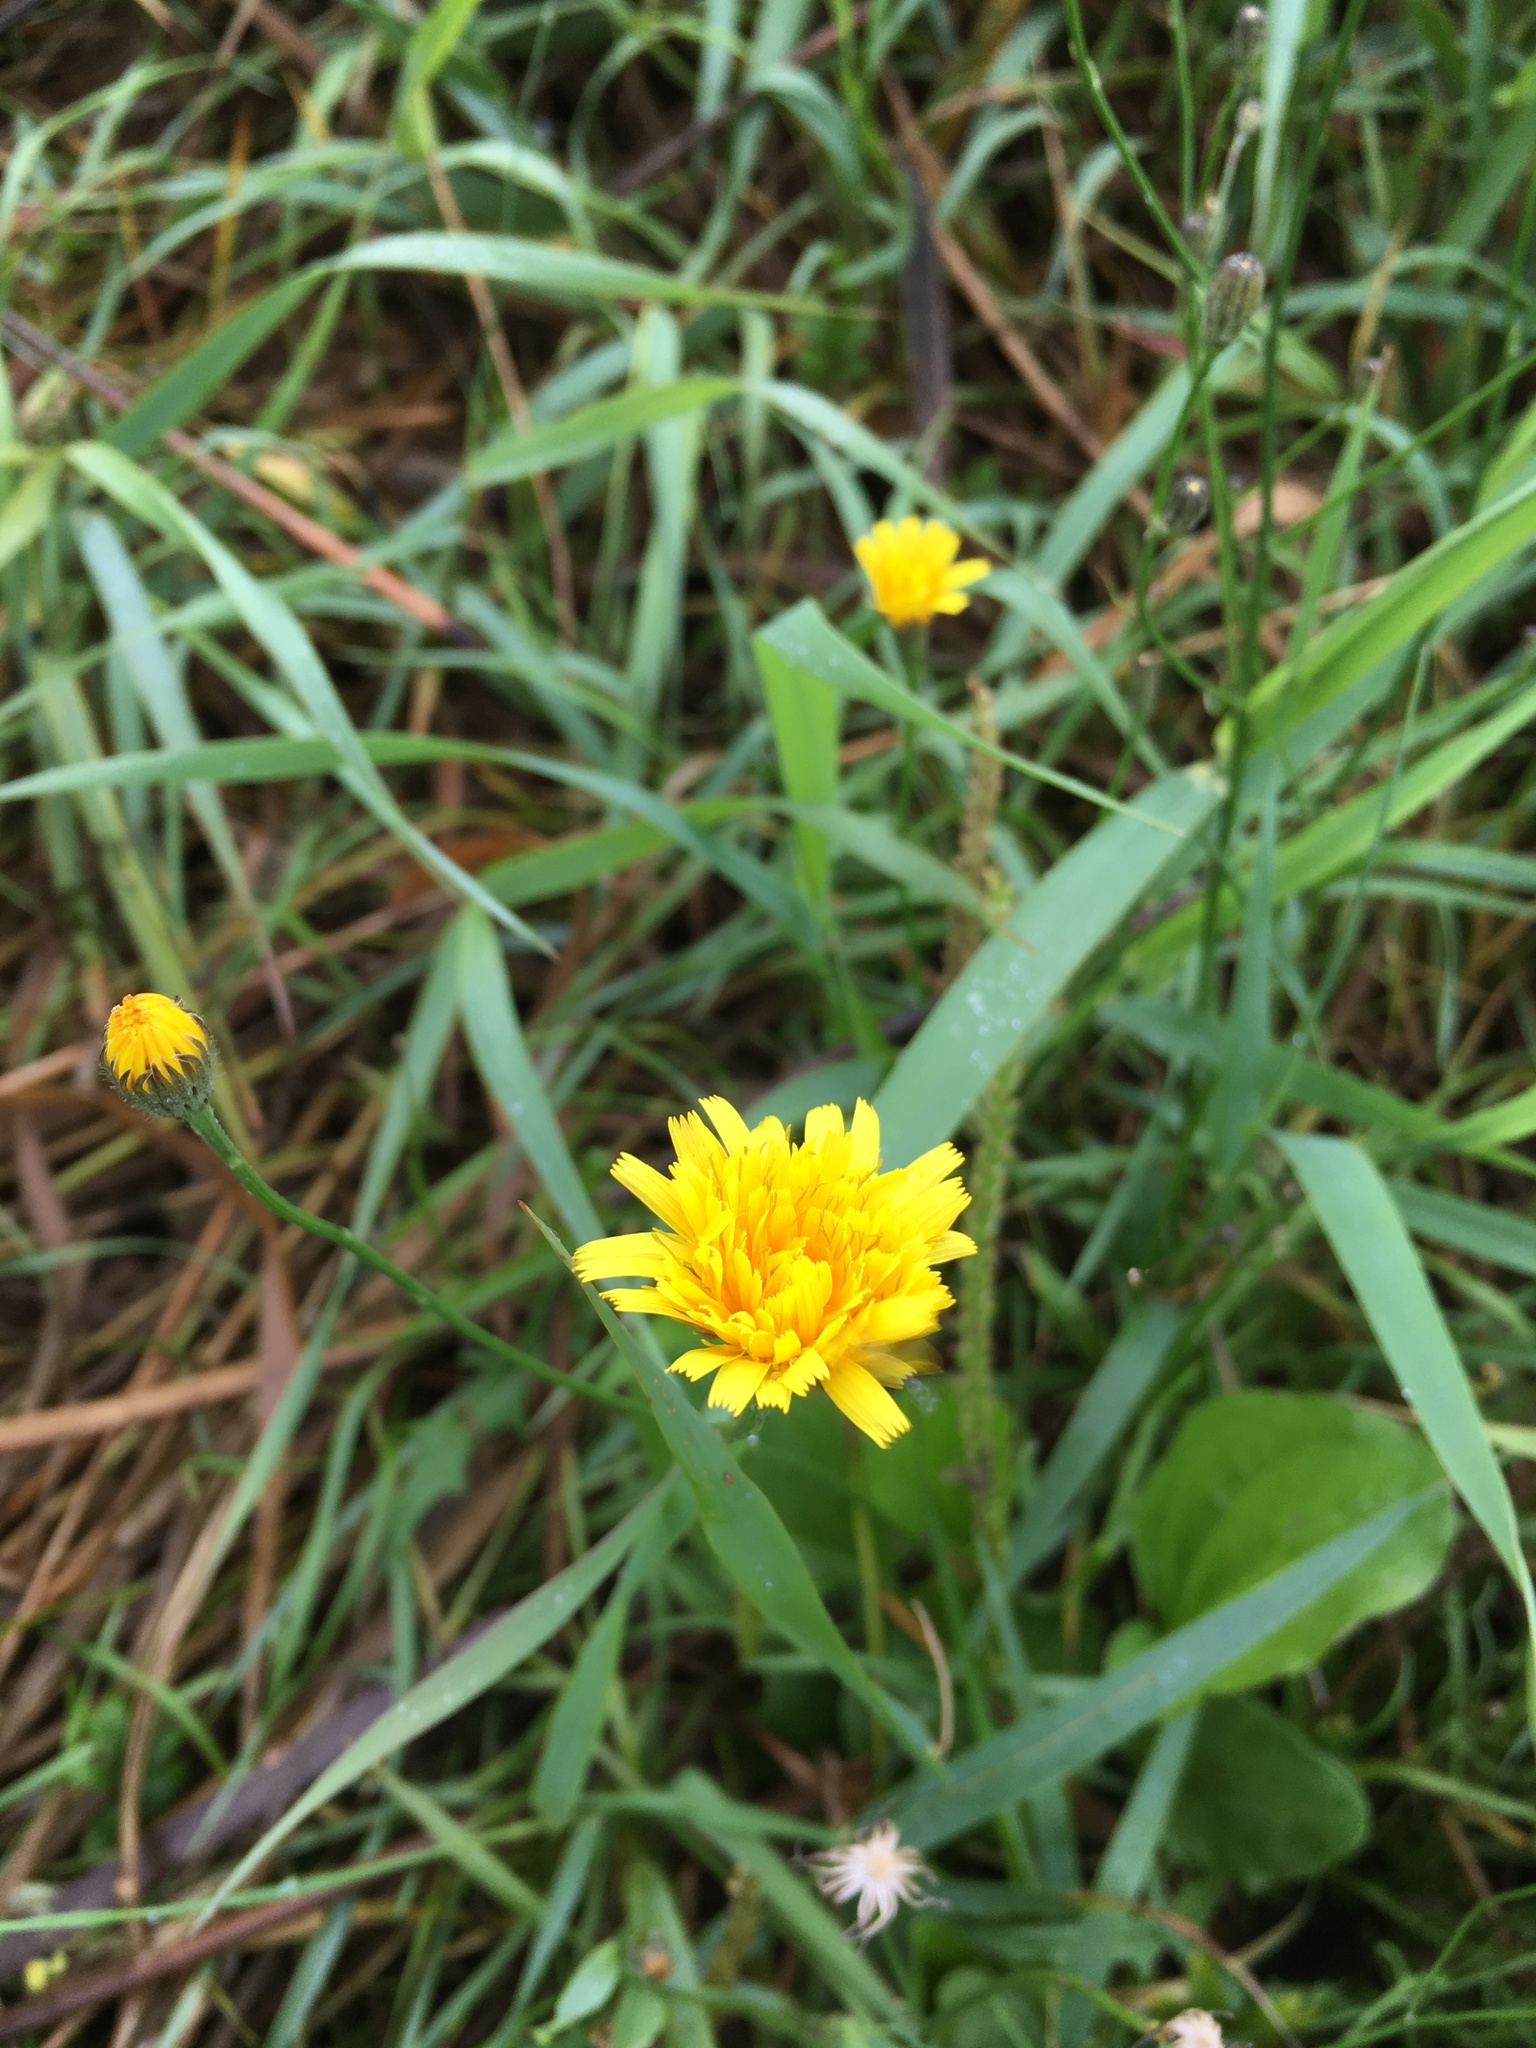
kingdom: Plantae
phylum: Tracheophyta
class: Magnoliopsida
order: Asterales
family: Asteraceae
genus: Scorzoneroides
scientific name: Scorzoneroides autumnalis
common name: Autumn hawkbit
